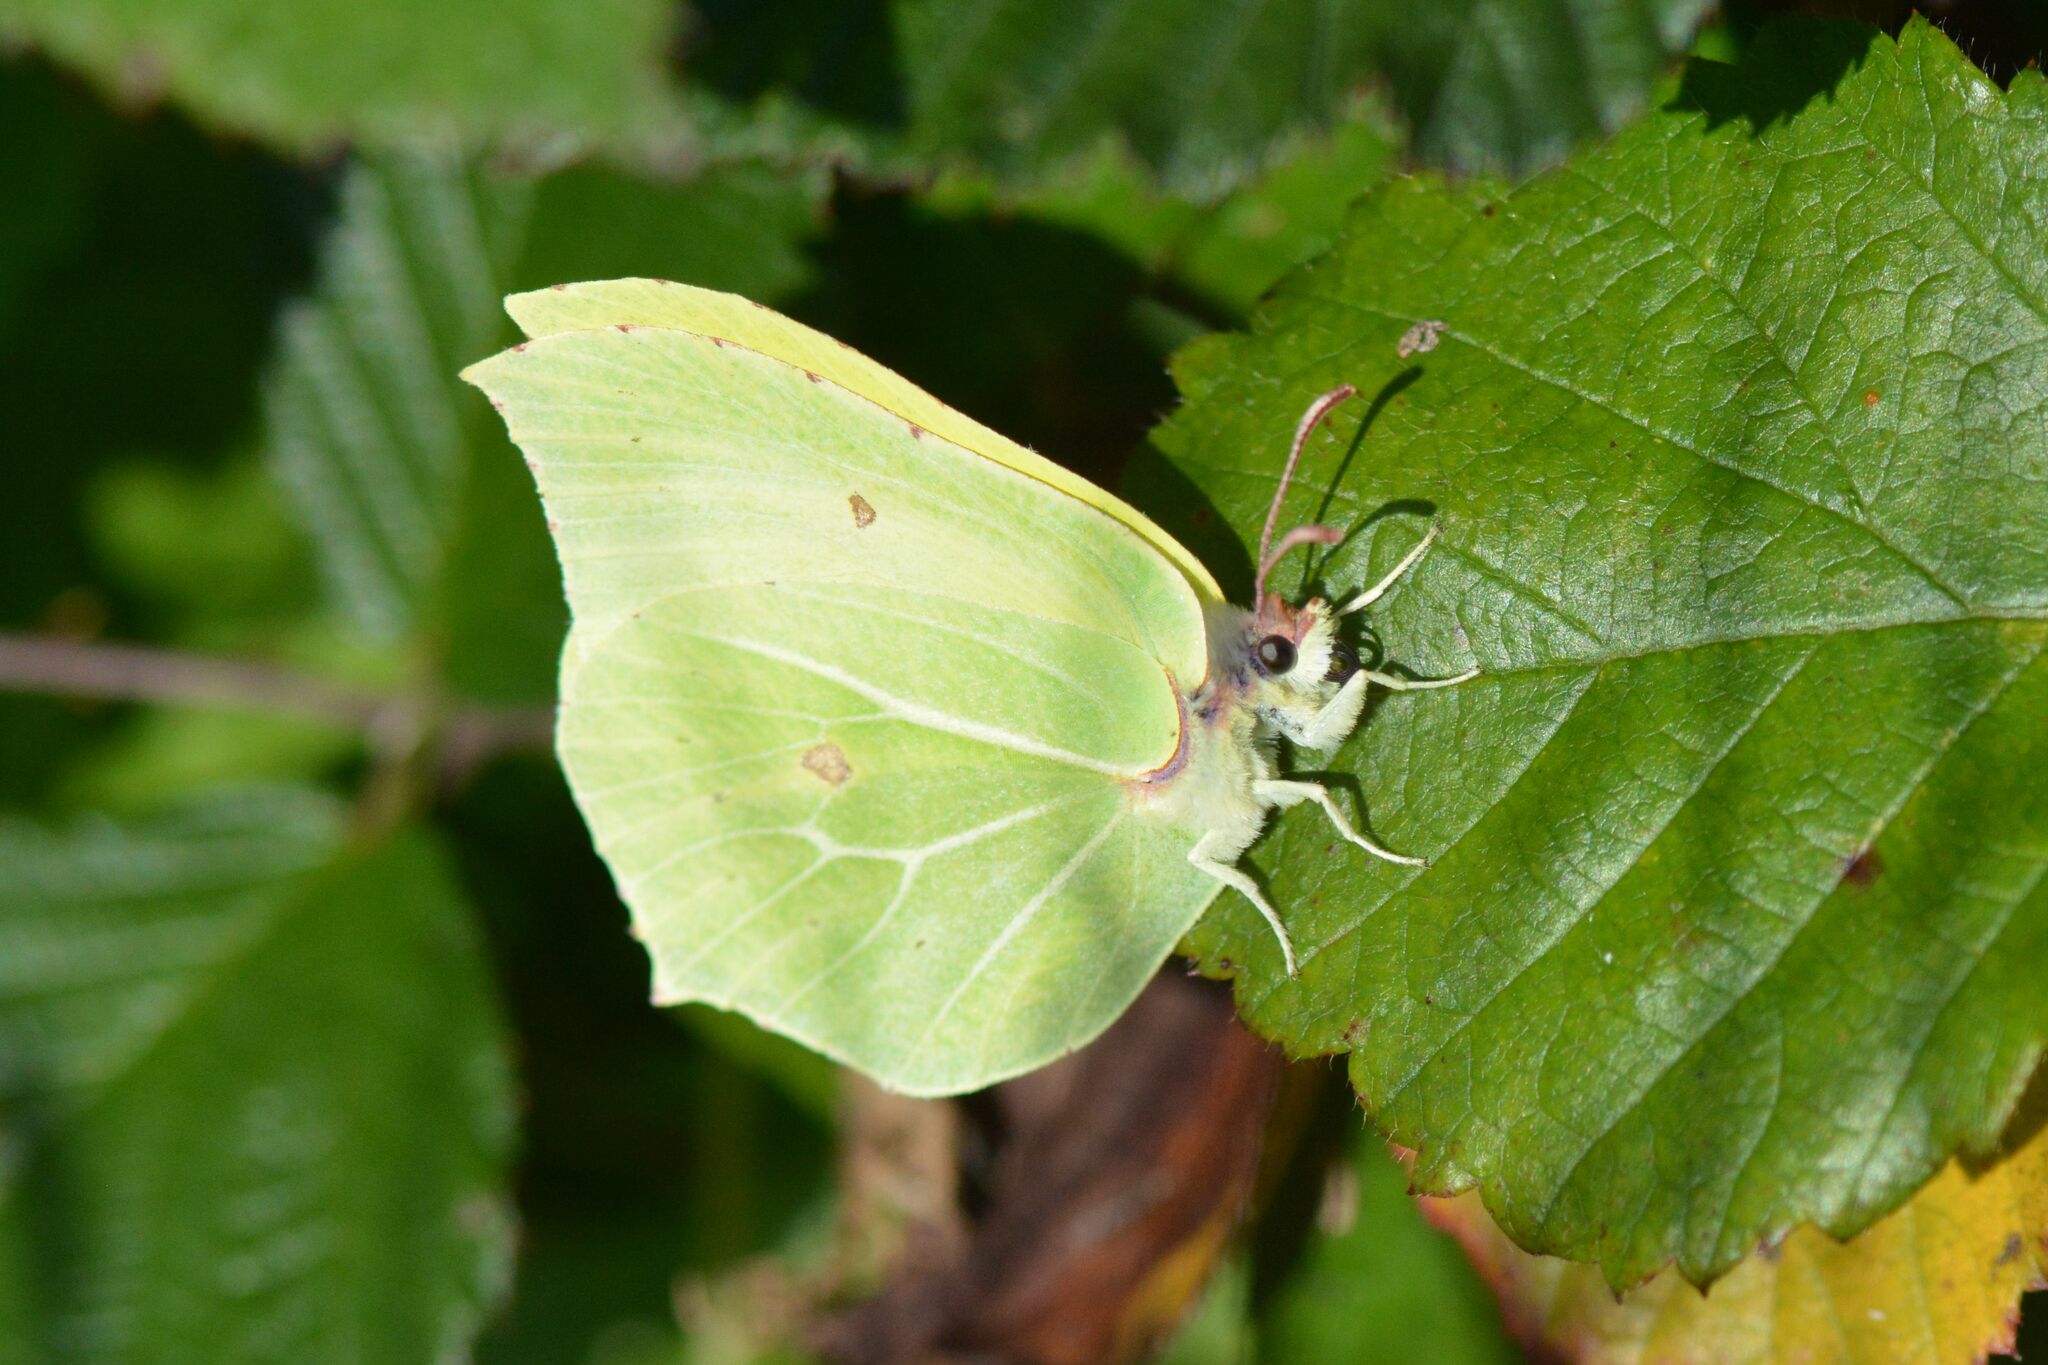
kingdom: Animalia
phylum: Arthropoda
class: Insecta
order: Lepidoptera
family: Pieridae
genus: Gonepteryx
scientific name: Gonepteryx rhamni
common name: Brimstone
